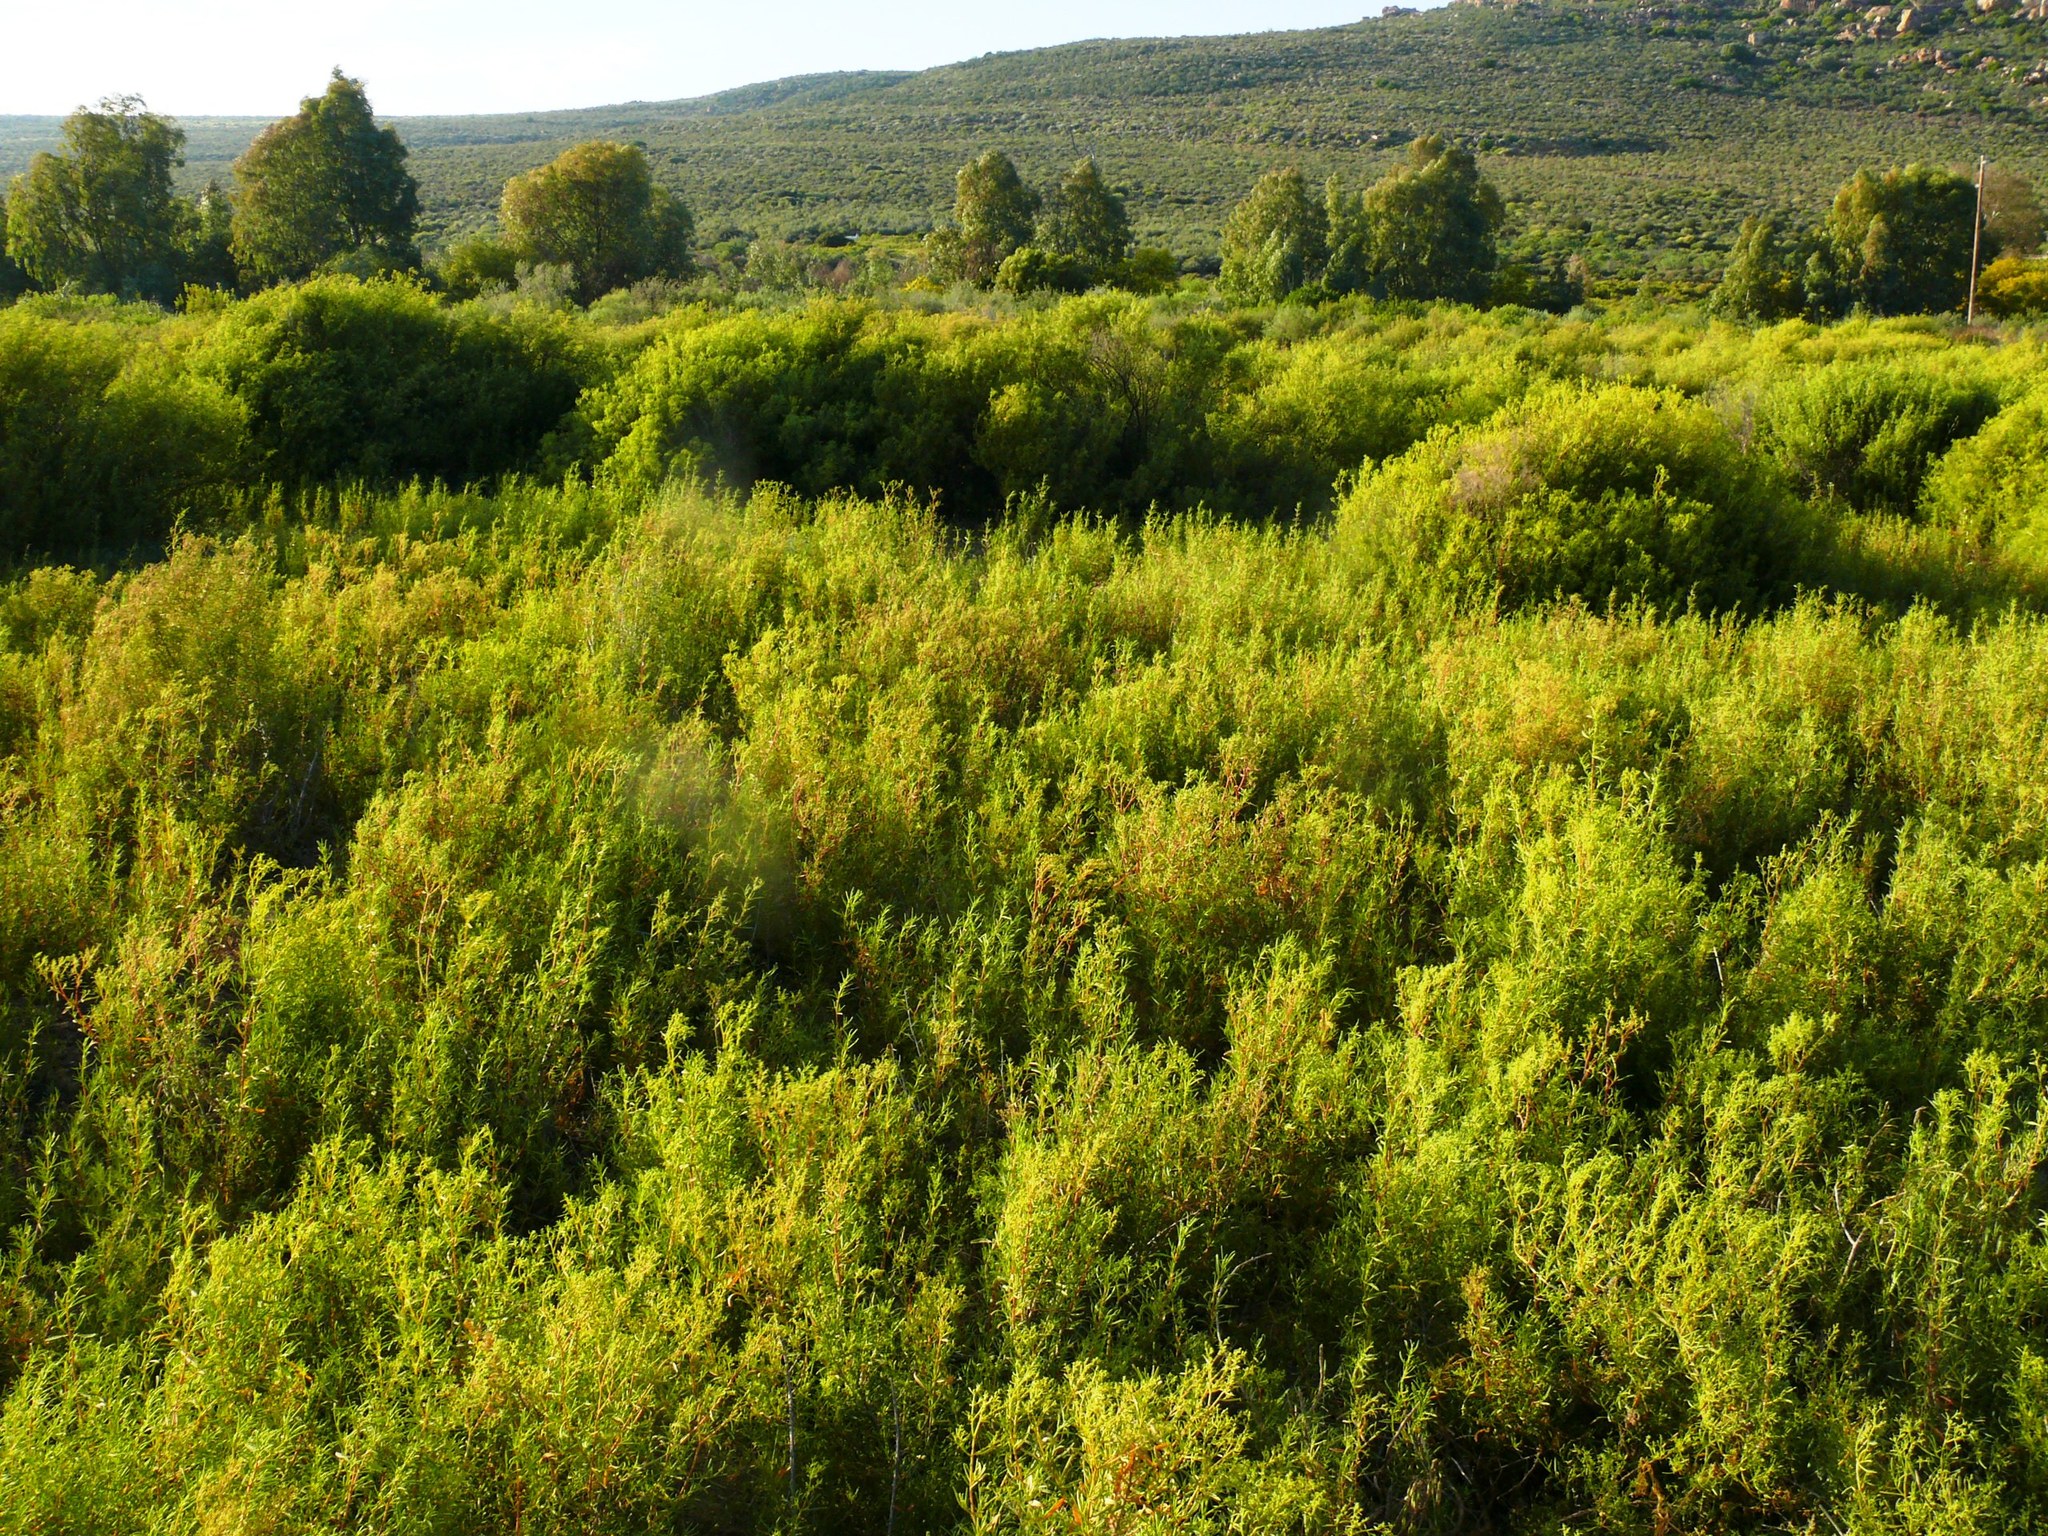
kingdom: Plantae
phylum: Tracheophyta
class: Magnoliopsida
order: Caryophyllales
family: Aizoaceae
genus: Aizoon
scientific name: Aizoon africanum
